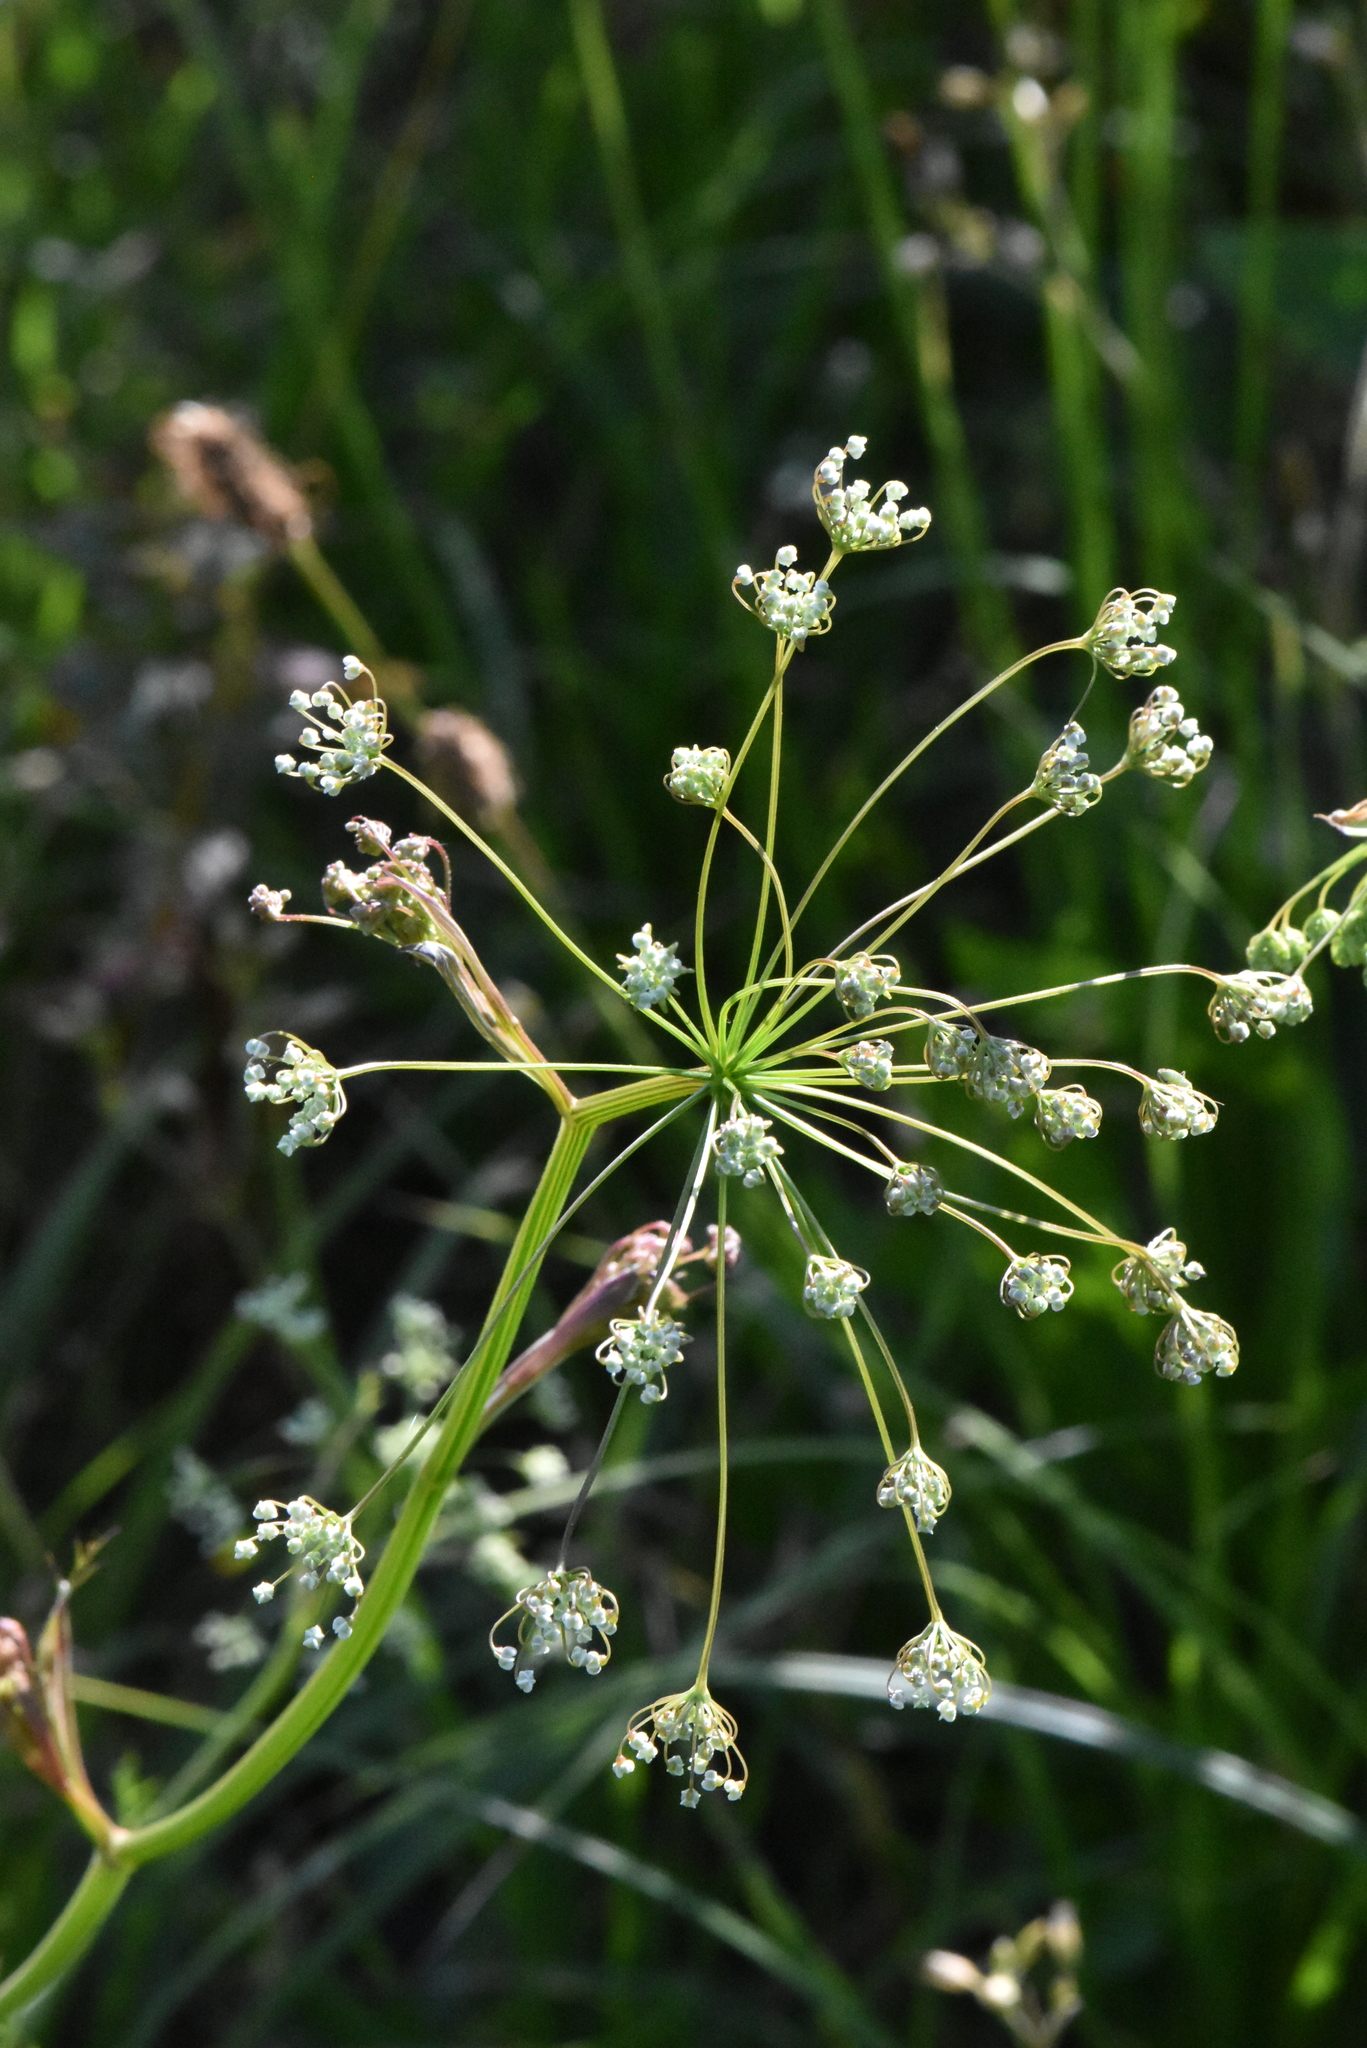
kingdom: Plantae
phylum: Tracheophyta
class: Magnoliopsida
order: Apiales
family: Apiaceae
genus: Pimpinella
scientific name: Pimpinella saxifraga
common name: Burnet-saxifrage
